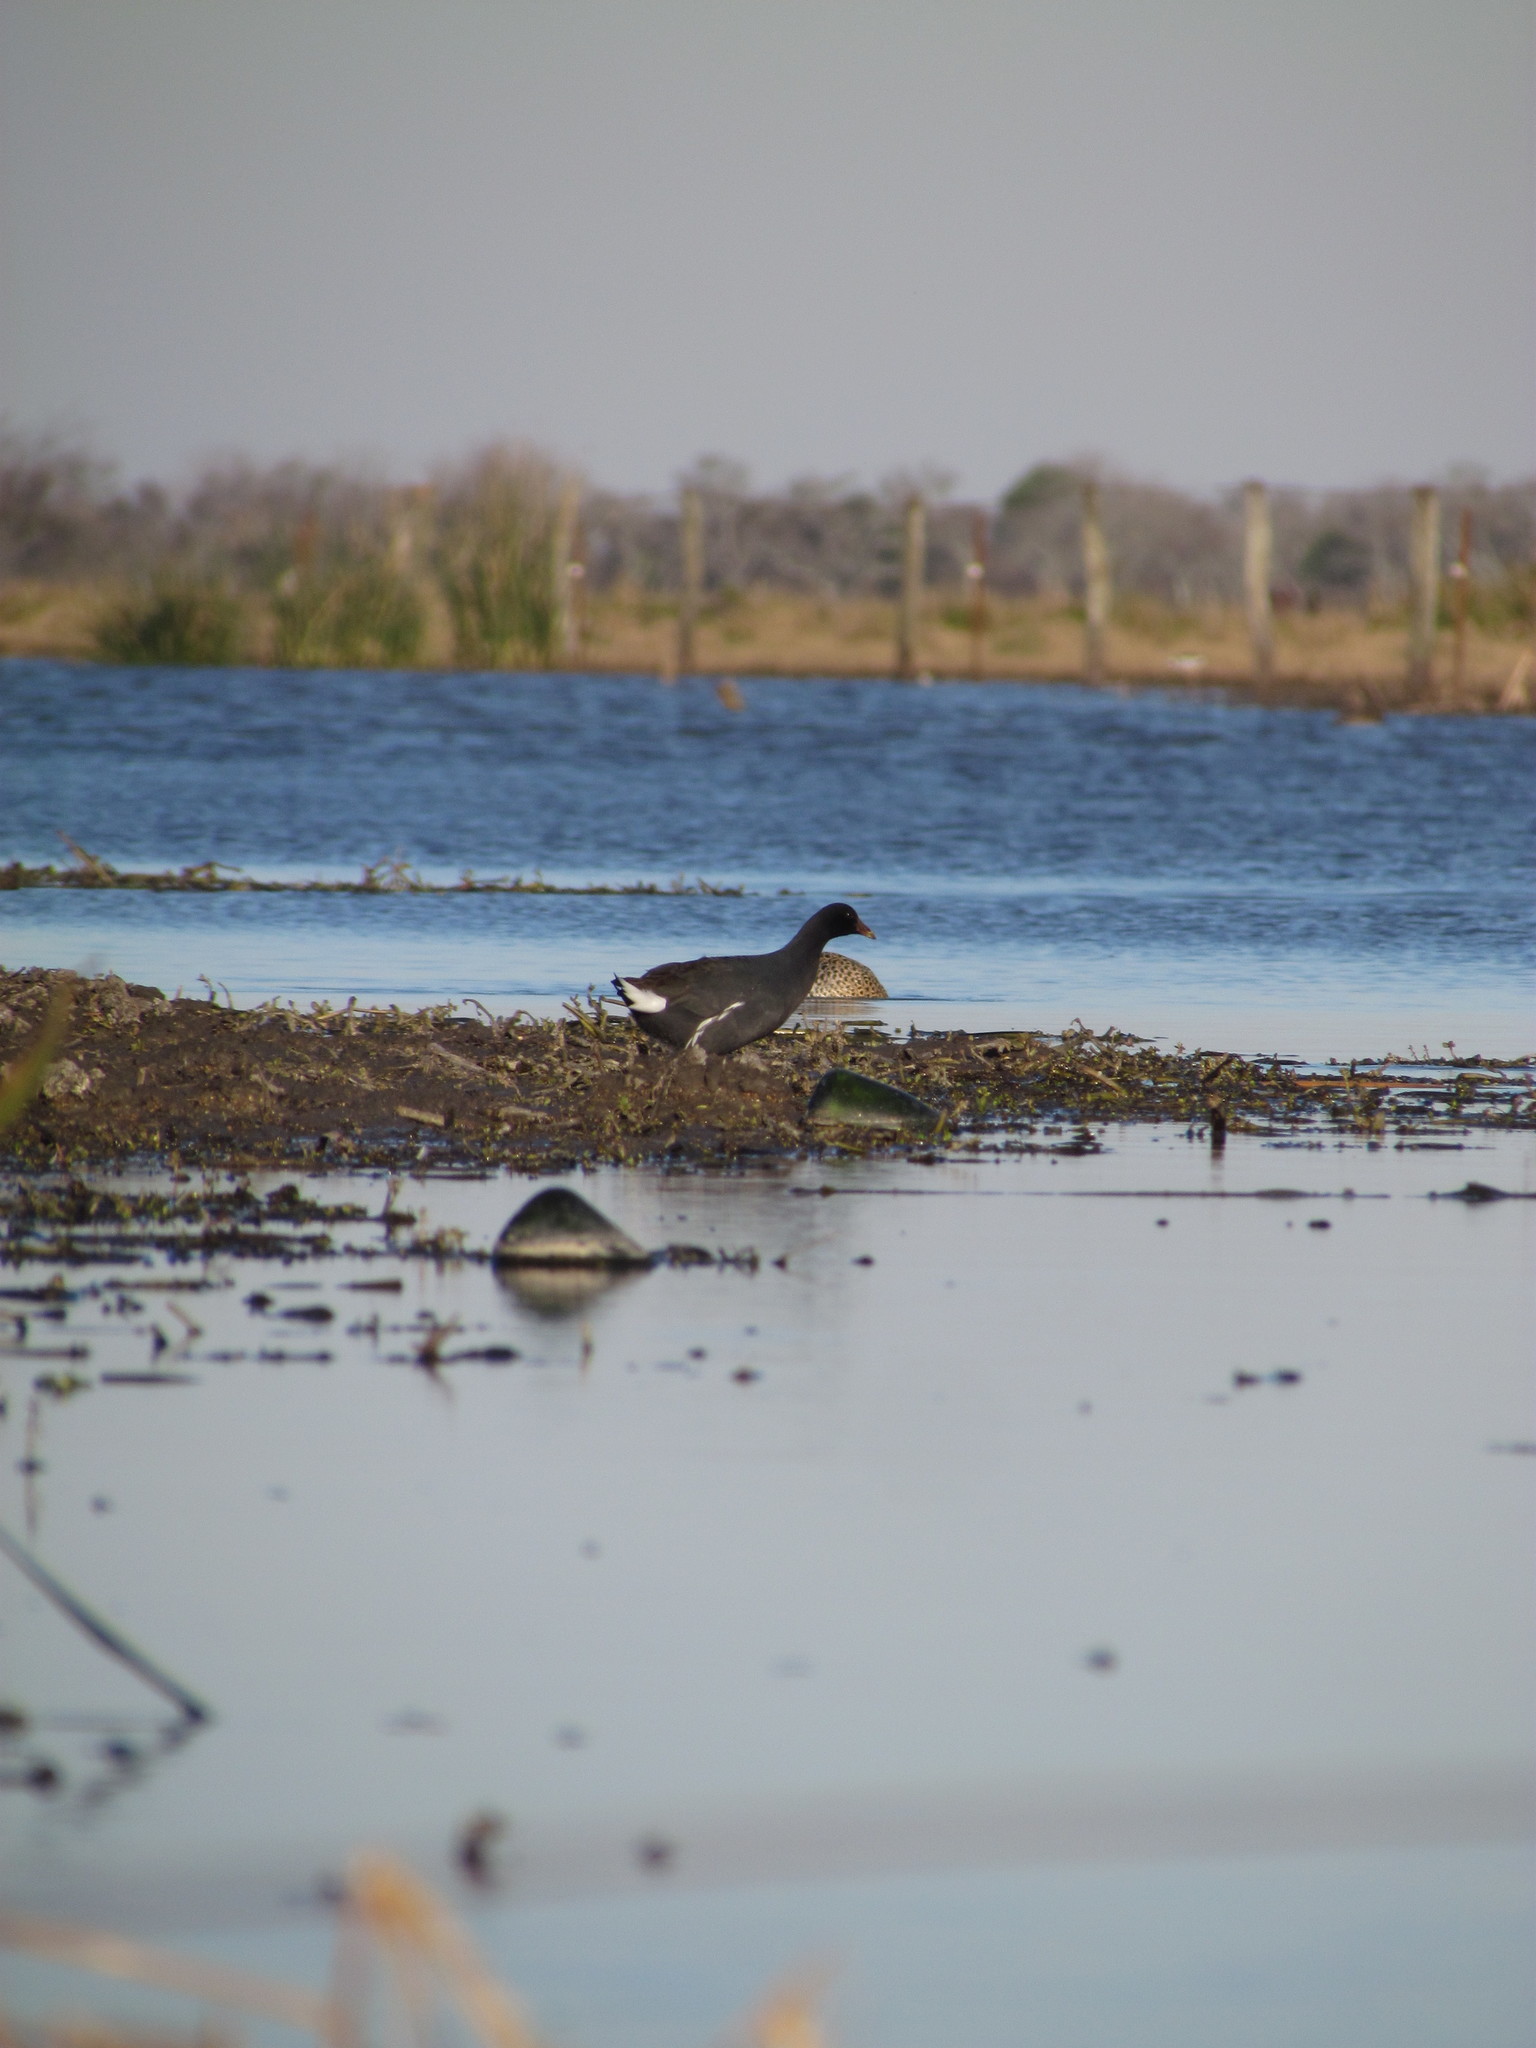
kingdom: Animalia
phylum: Chordata
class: Aves
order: Gruiformes
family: Rallidae
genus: Gallinula
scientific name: Gallinula chloropus
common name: Common moorhen
